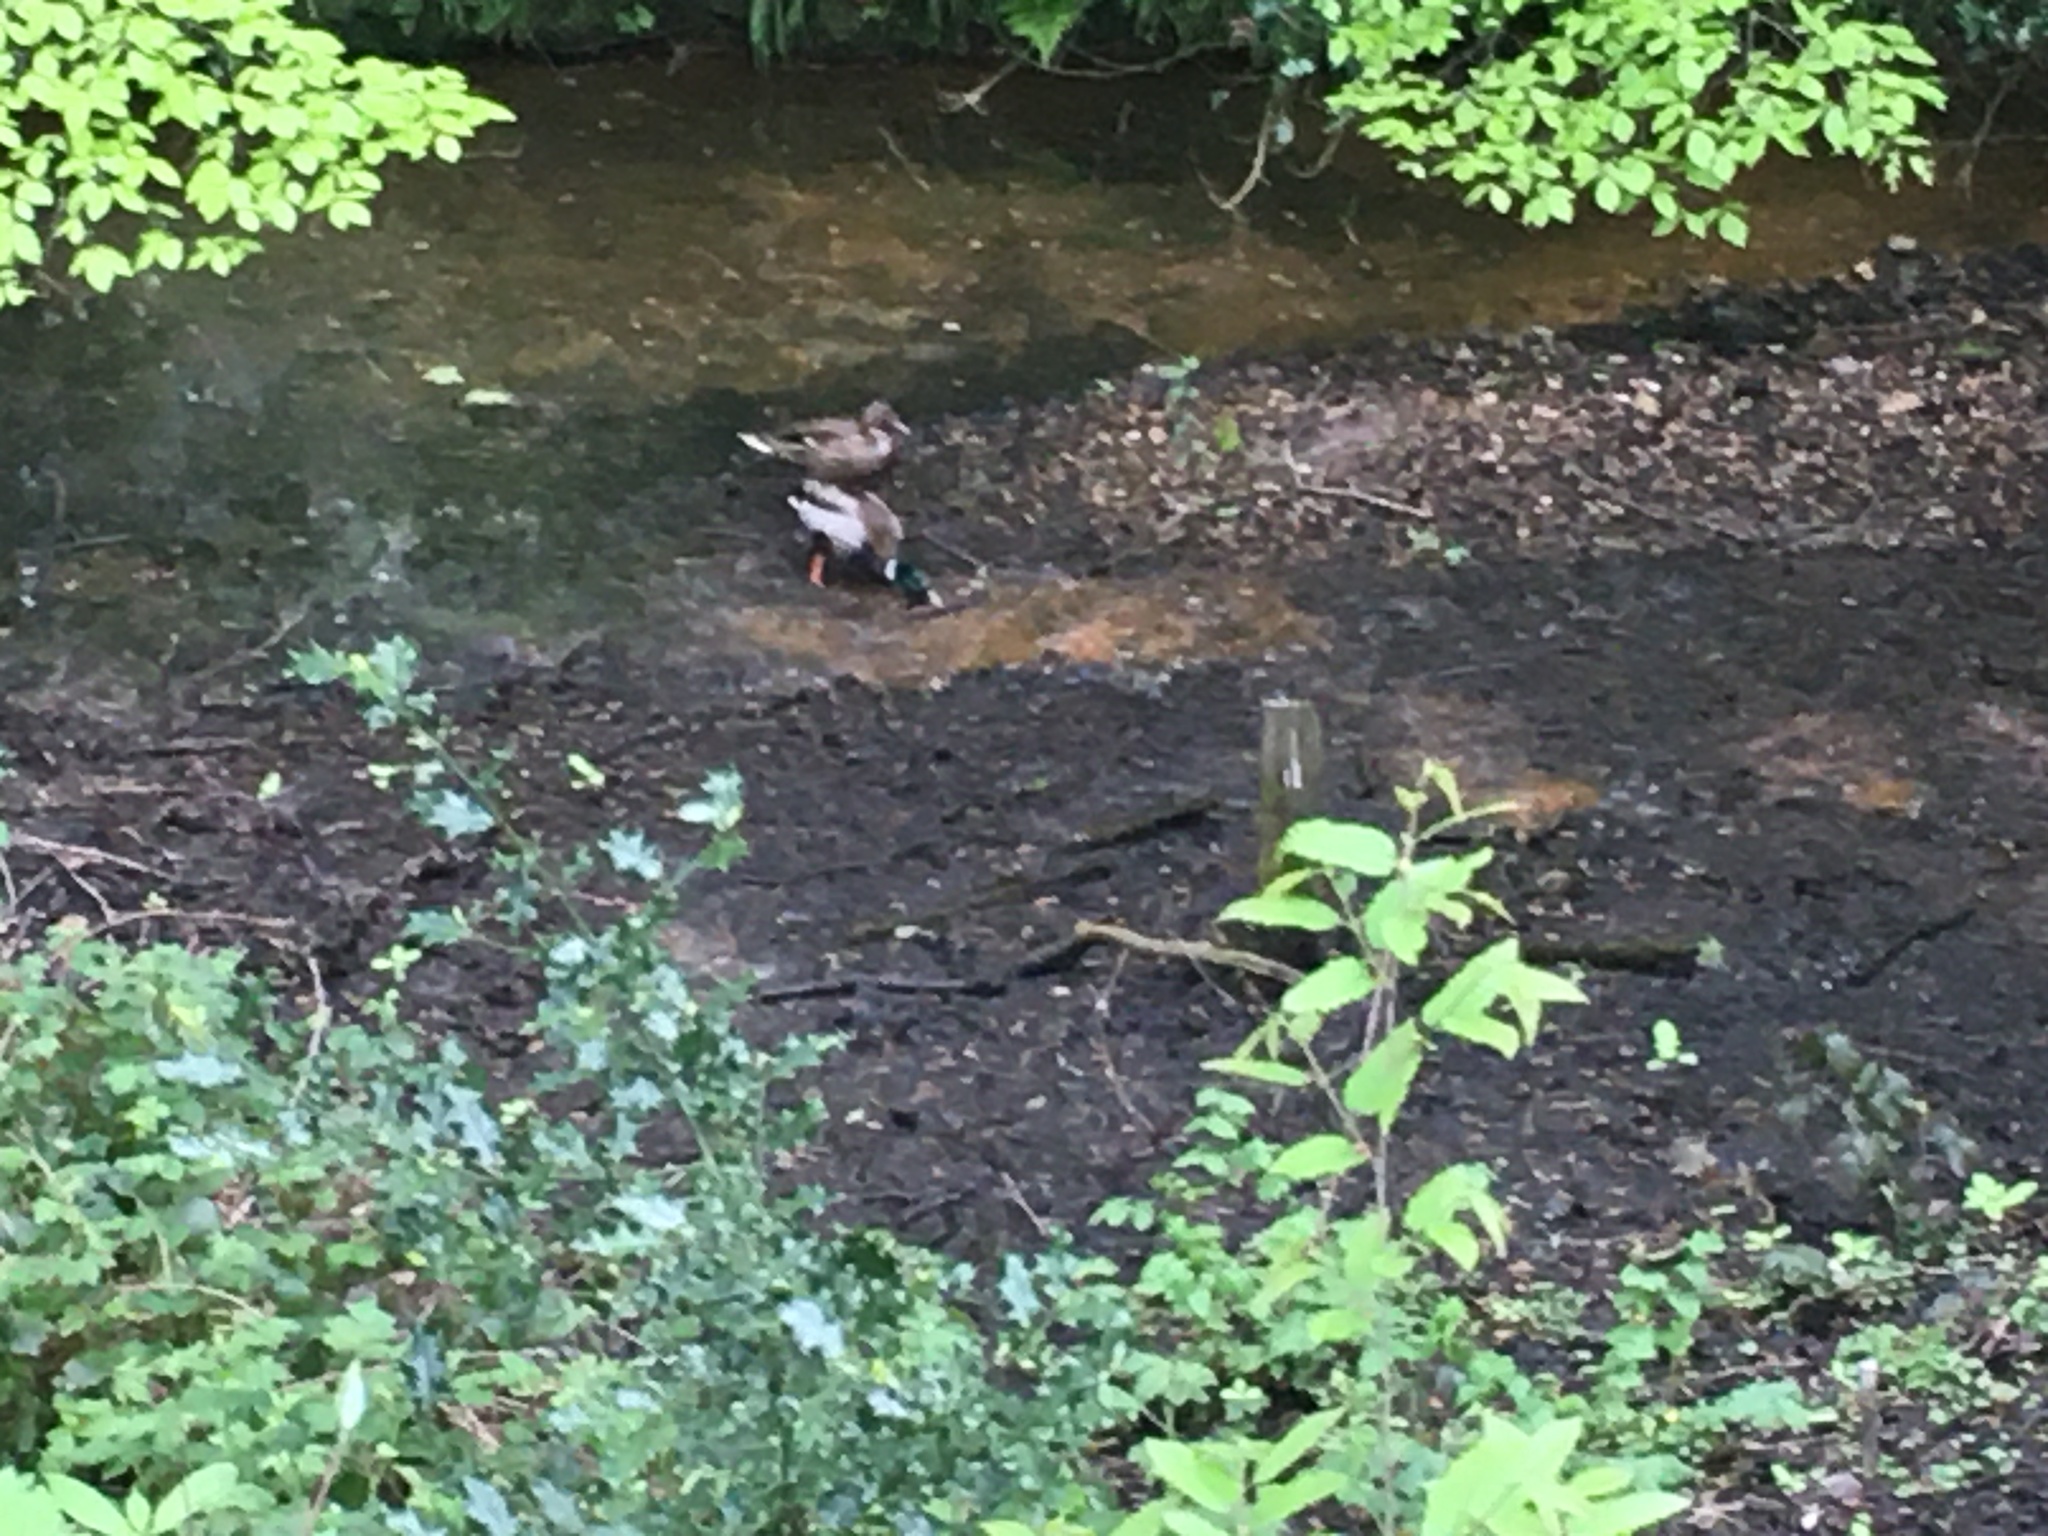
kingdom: Animalia
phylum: Chordata
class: Aves
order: Anseriformes
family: Anatidae
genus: Anas
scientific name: Anas platyrhynchos
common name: Mallard
